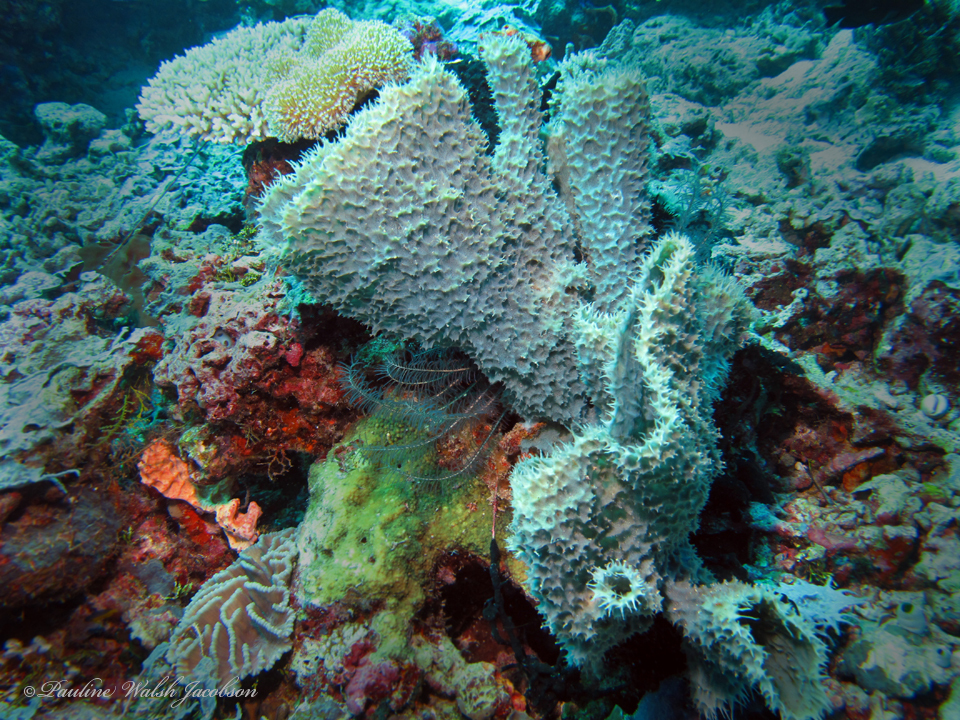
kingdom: Animalia
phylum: Porifera
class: Demospongiae
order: Haplosclerida
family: Callyspongiidae
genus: Callyspongia
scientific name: Callyspongia aerizusa
